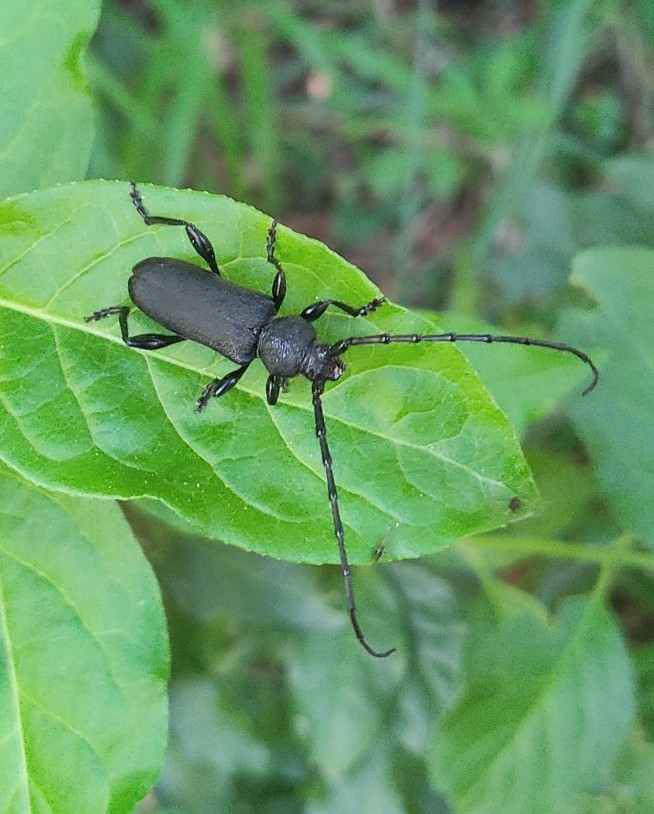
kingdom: Animalia
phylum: Arthropoda
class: Insecta
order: Coleoptera
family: Cerambycidae
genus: Ropalopus
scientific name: Ropalopus clavipes
